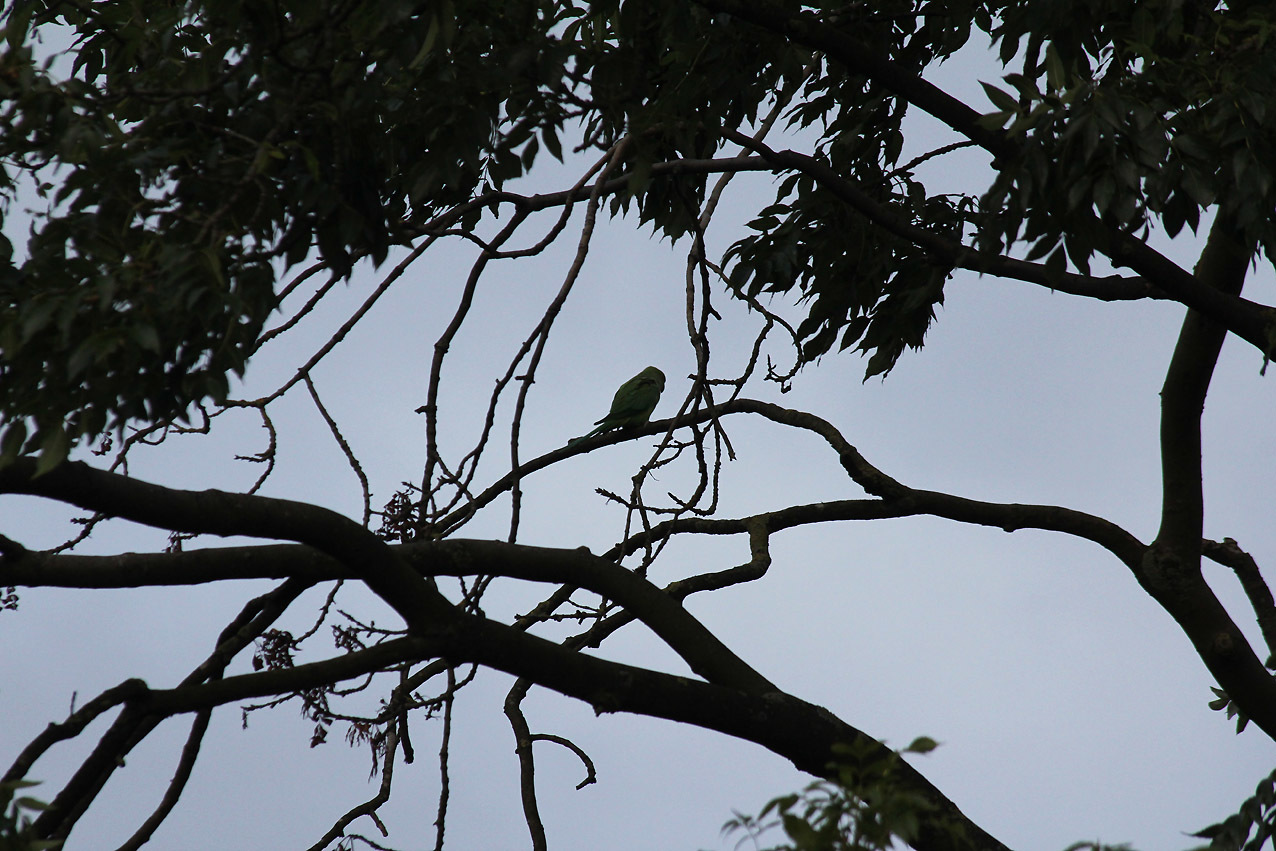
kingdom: Animalia
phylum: Chordata
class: Aves
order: Psittaciformes
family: Psittacidae
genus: Psittacula
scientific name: Psittacula krameri
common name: Rose-ringed parakeet
